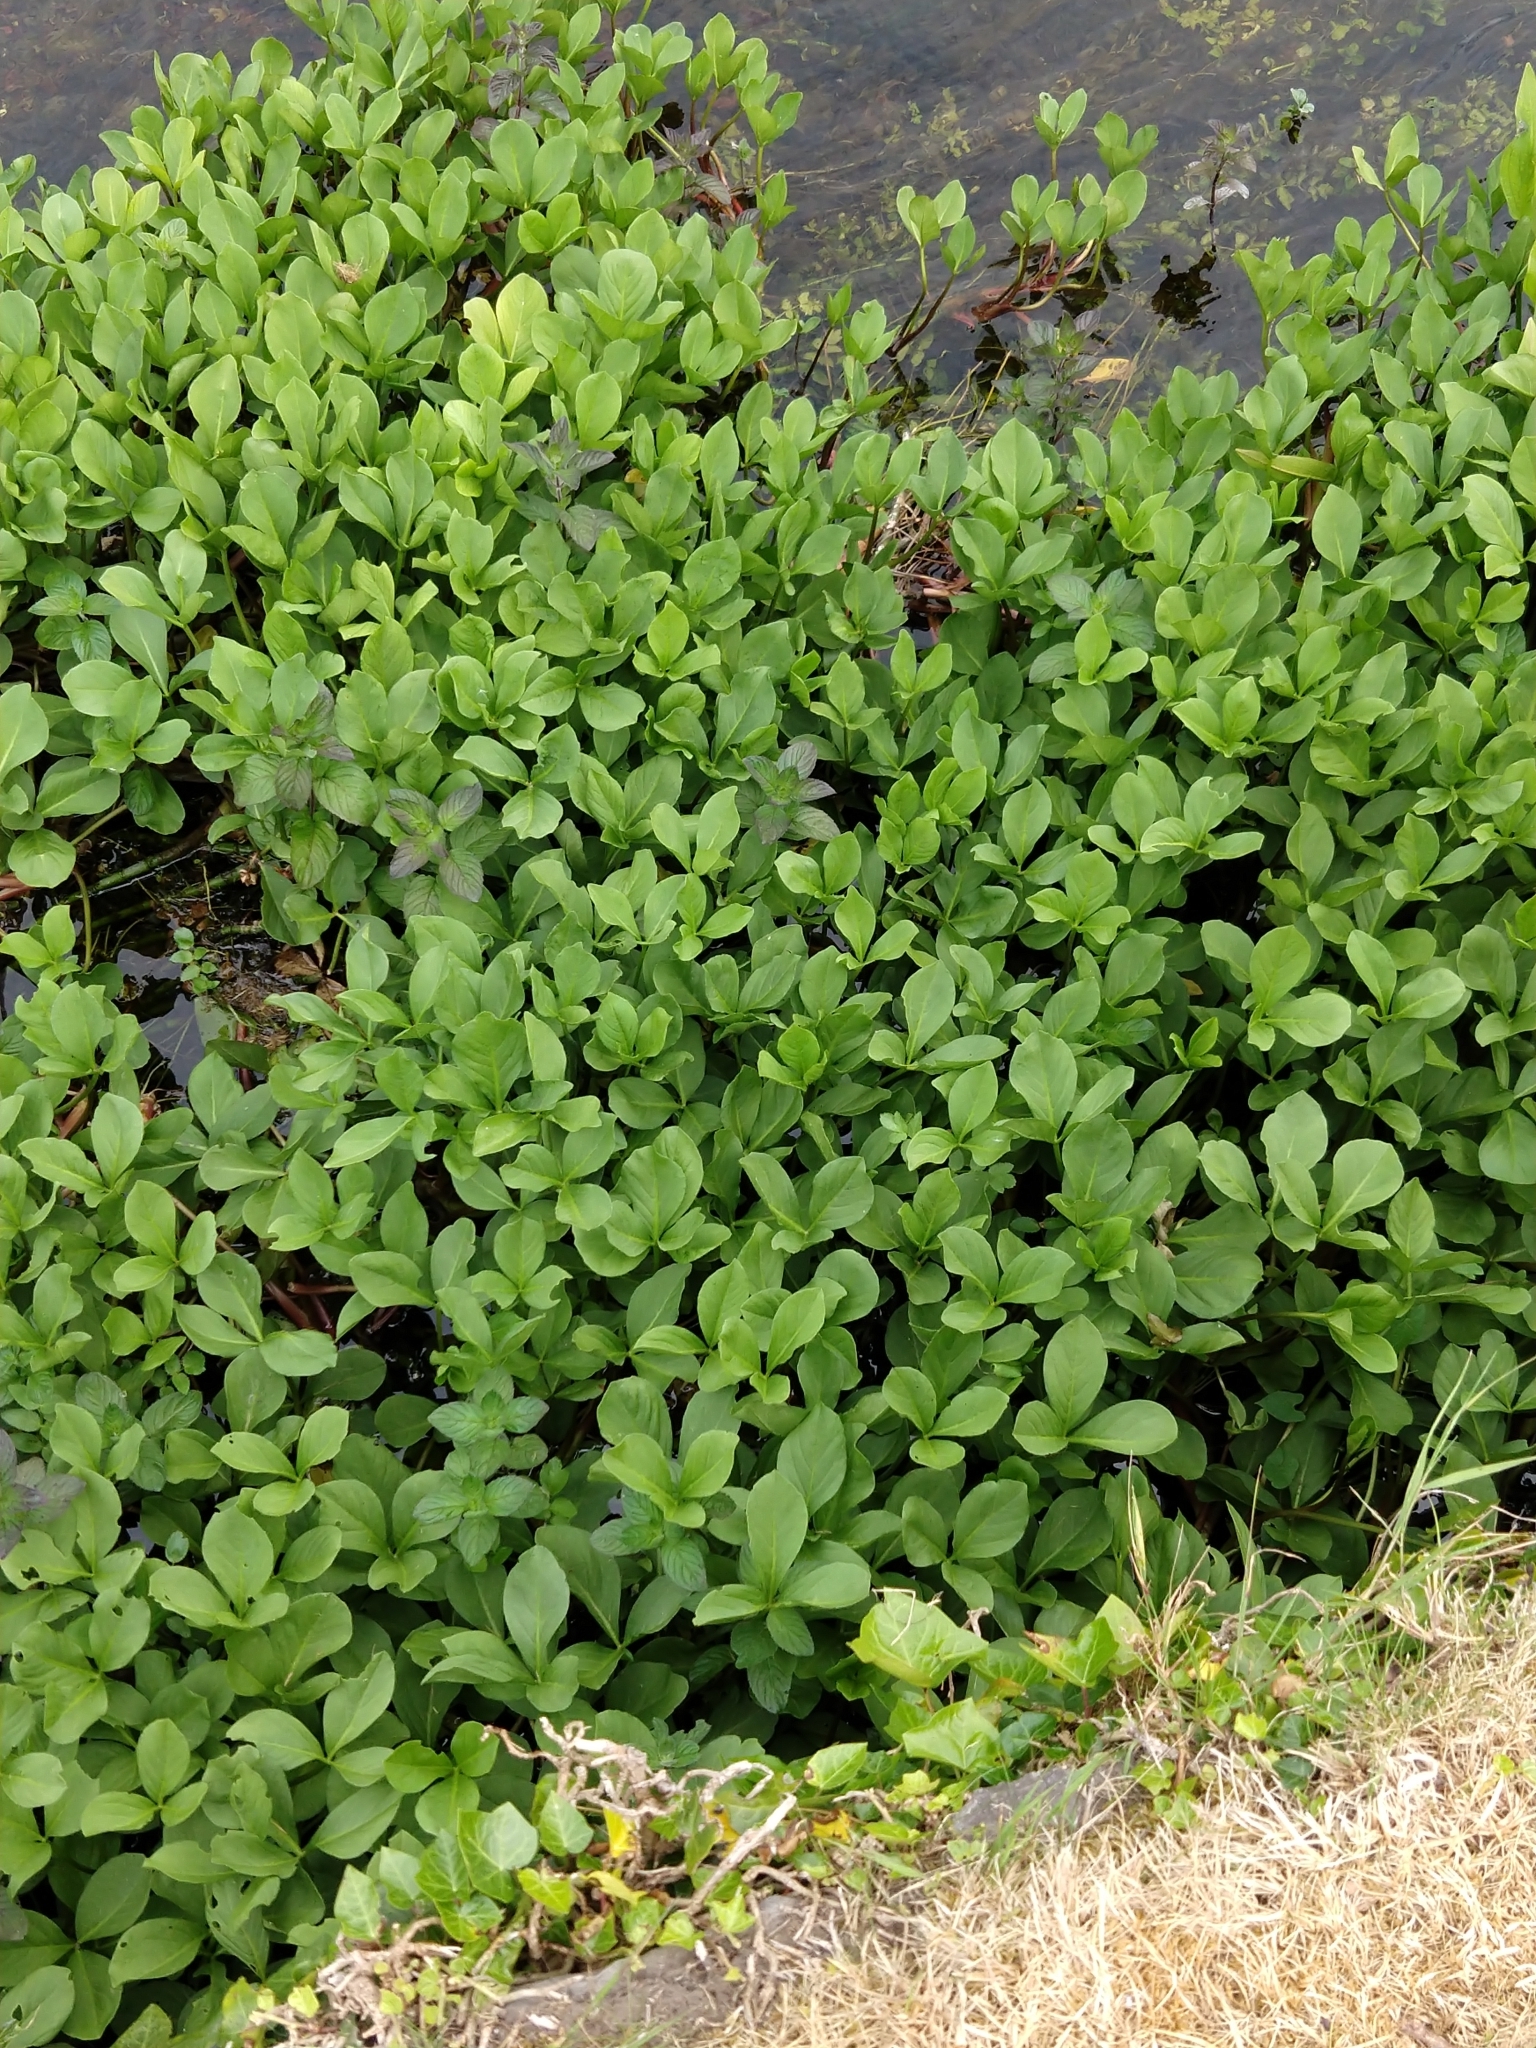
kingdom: Plantae
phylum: Tracheophyta
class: Magnoliopsida
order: Asterales
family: Menyanthaceae
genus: Menyanthes
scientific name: Menyanthes trifoliata
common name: Bogbean
